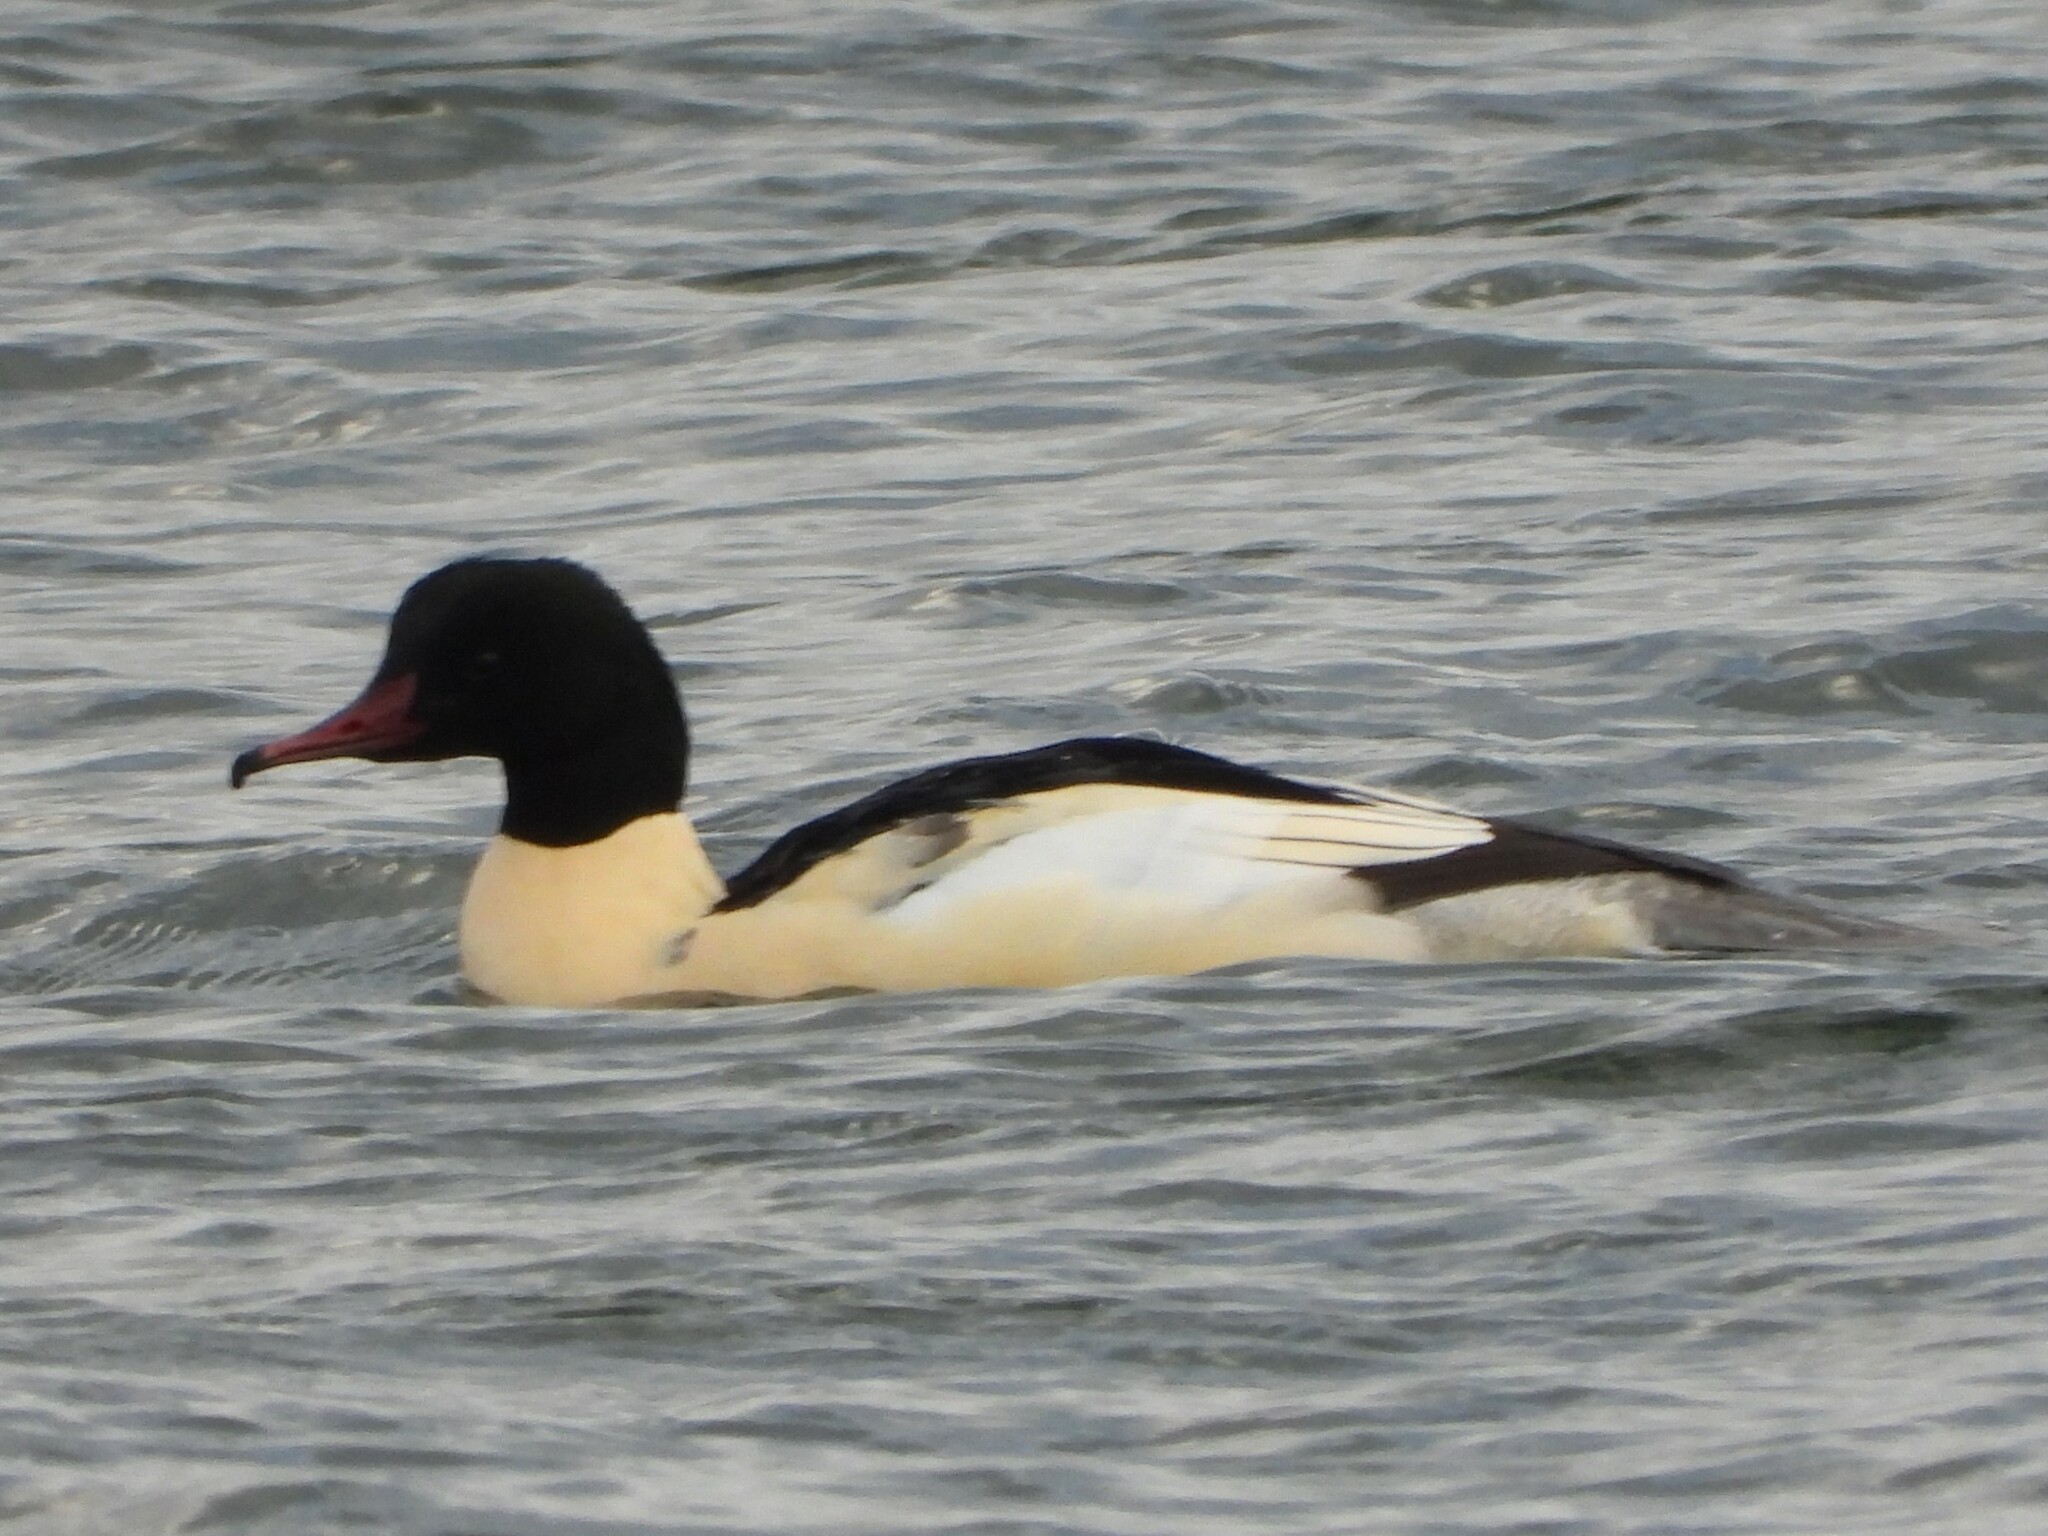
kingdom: Animalia
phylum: Chordata
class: Aves
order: Anseriformes
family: Anatidae
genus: Mergus
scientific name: Mergus merganser
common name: Common merganser
